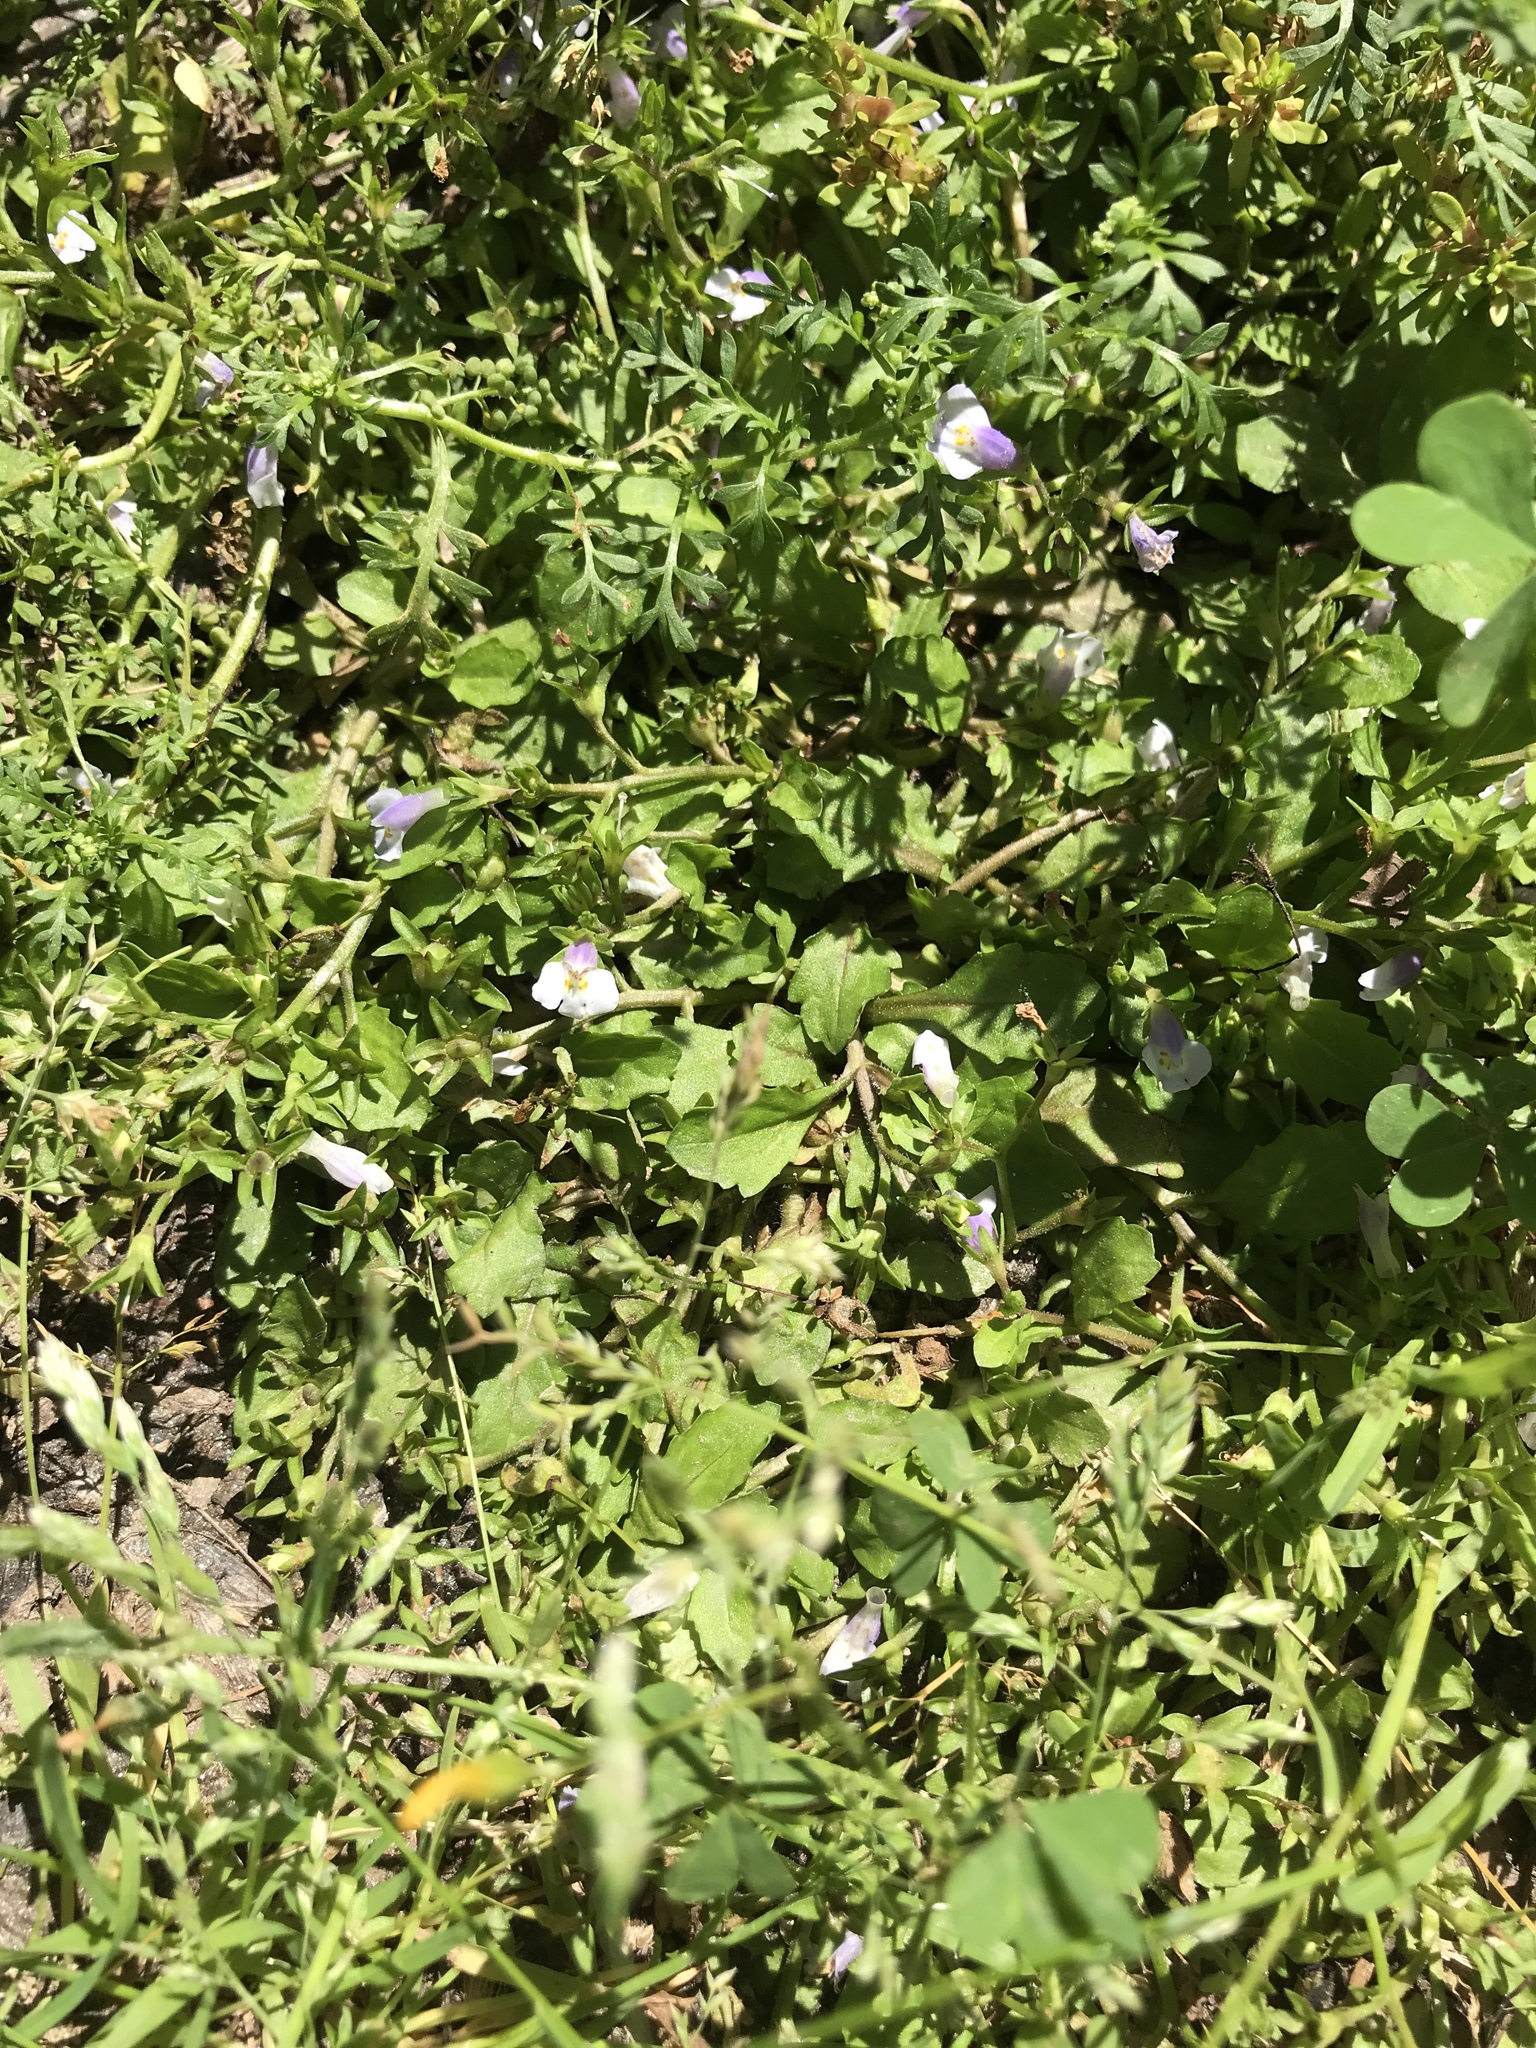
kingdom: Plantae
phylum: Tracheophyta
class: Magnoliopsida
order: Lamiales
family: Mazaceae
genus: Mazus
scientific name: Mazus pumilus
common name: Japanese mazus
